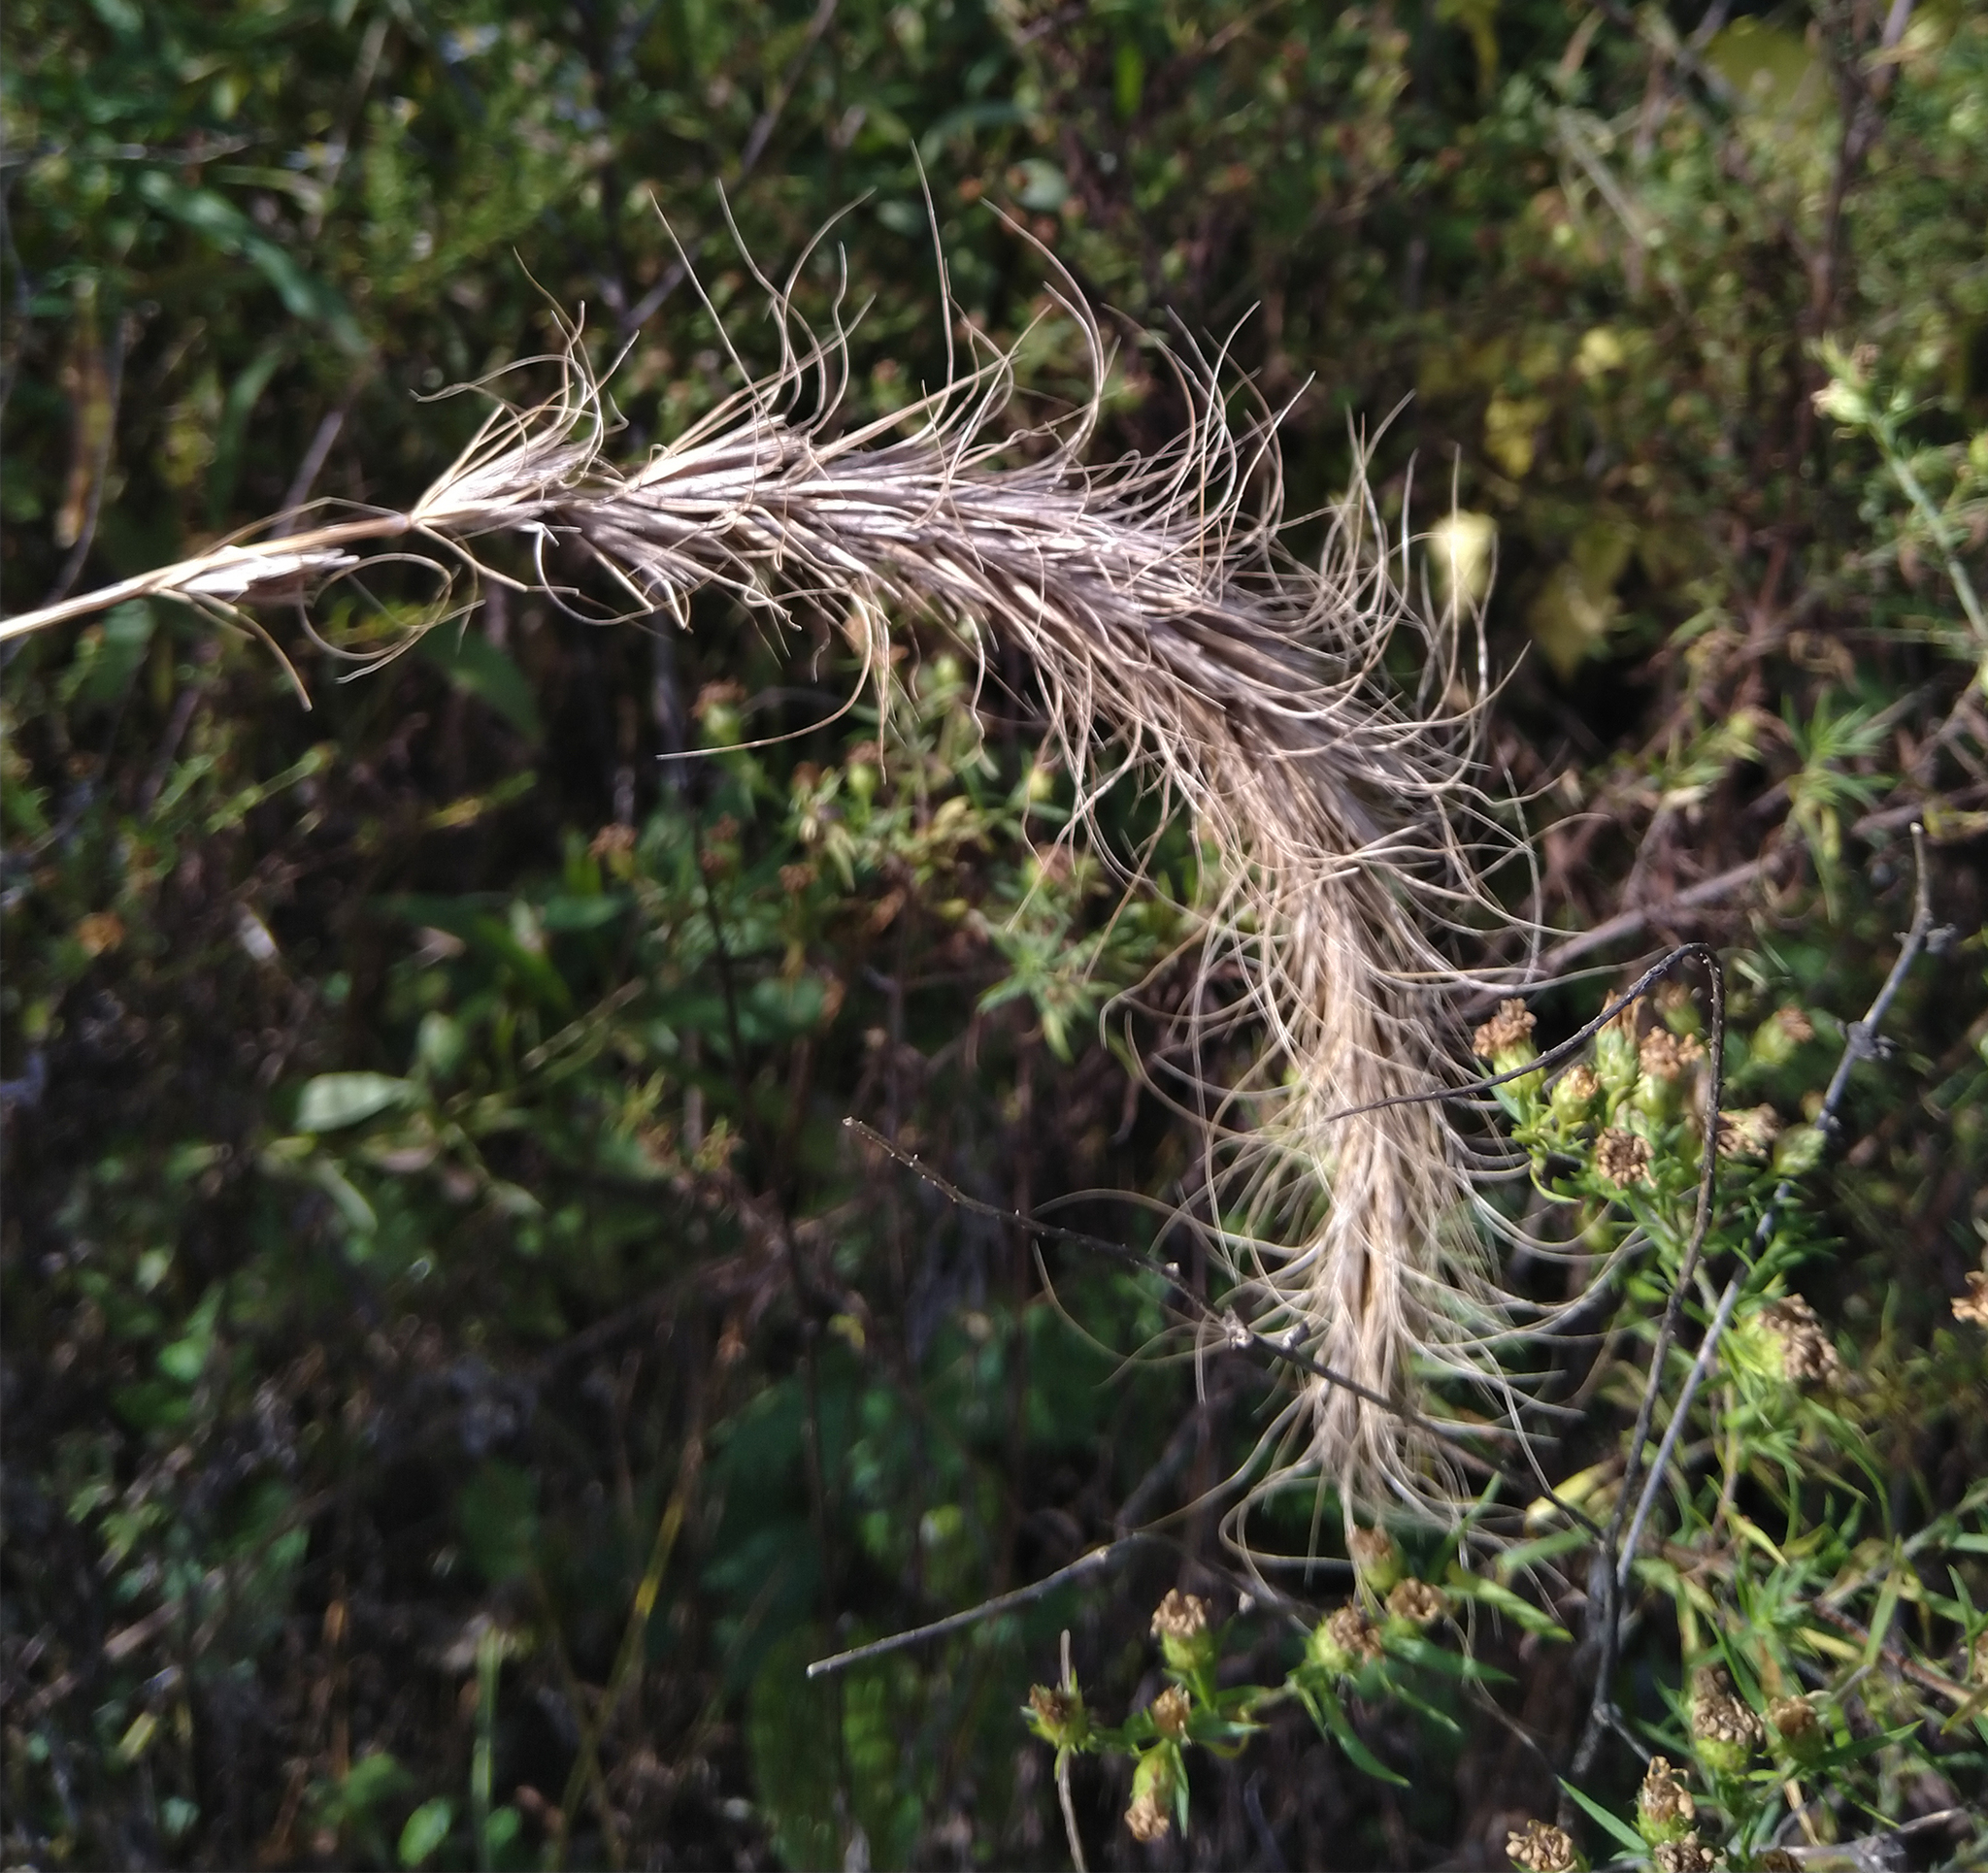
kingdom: Plantae
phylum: Tracheophyta
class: Liliopsida
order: Poales
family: Poaceae
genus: Elymus
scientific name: Elymus canadensis
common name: Canada wild rye
